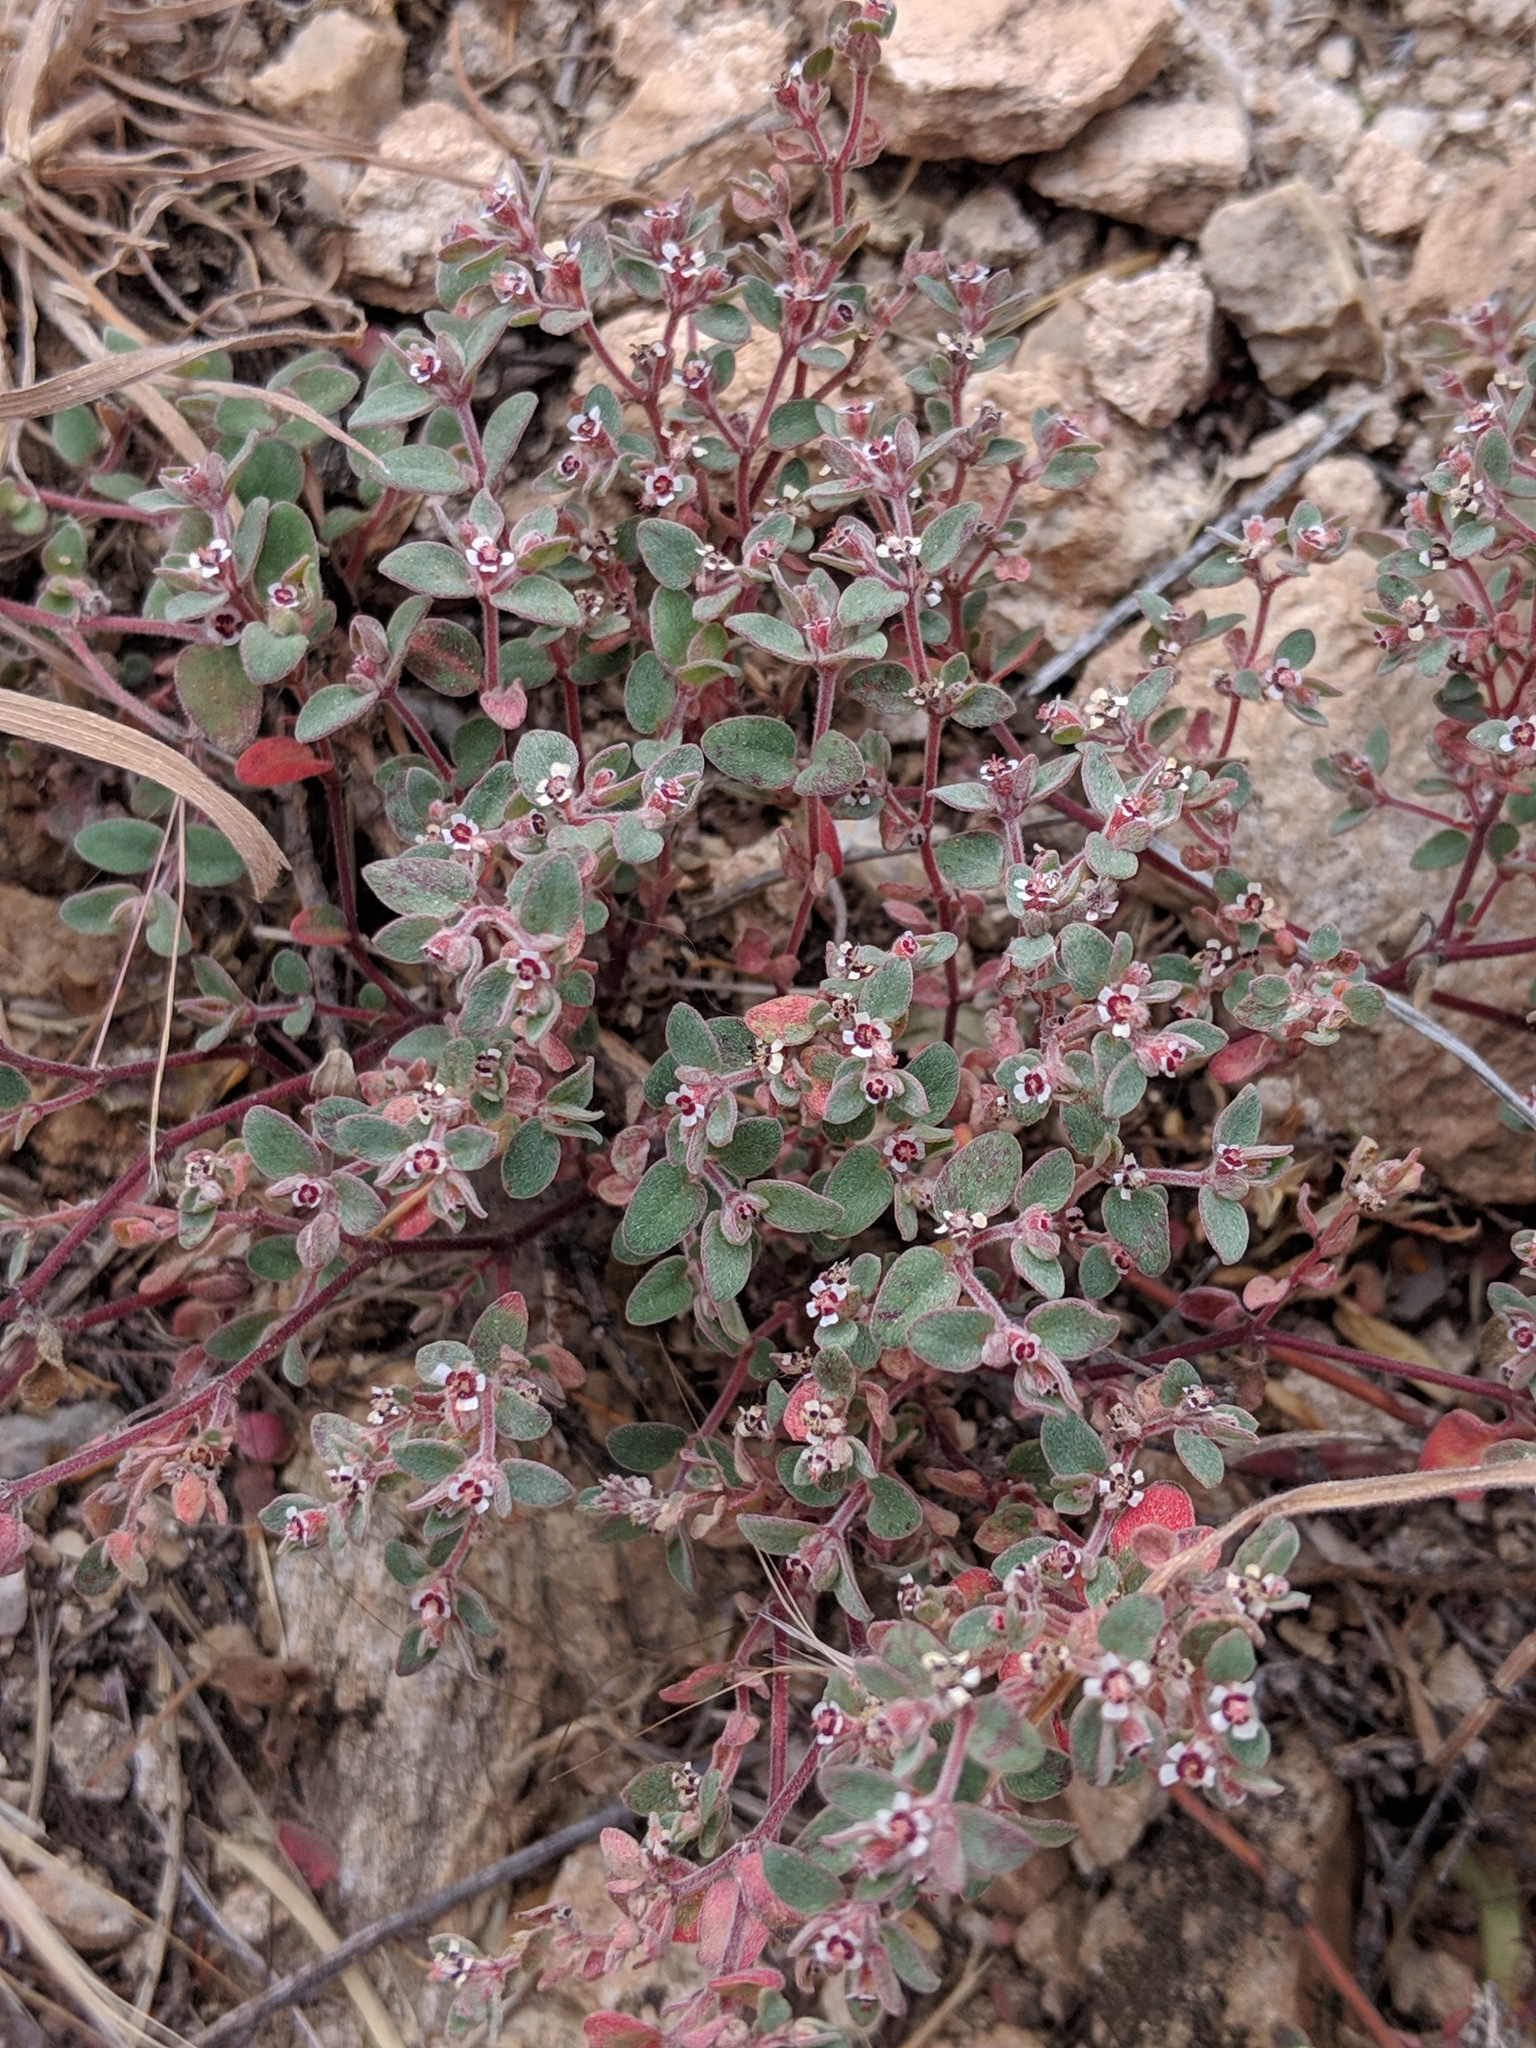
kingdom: Plantae
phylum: Tracheophyta
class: Magnoliopsida
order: Malpighiales
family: Euphorbiaceae
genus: Euphorbia
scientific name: Euphorbia melanadenia
